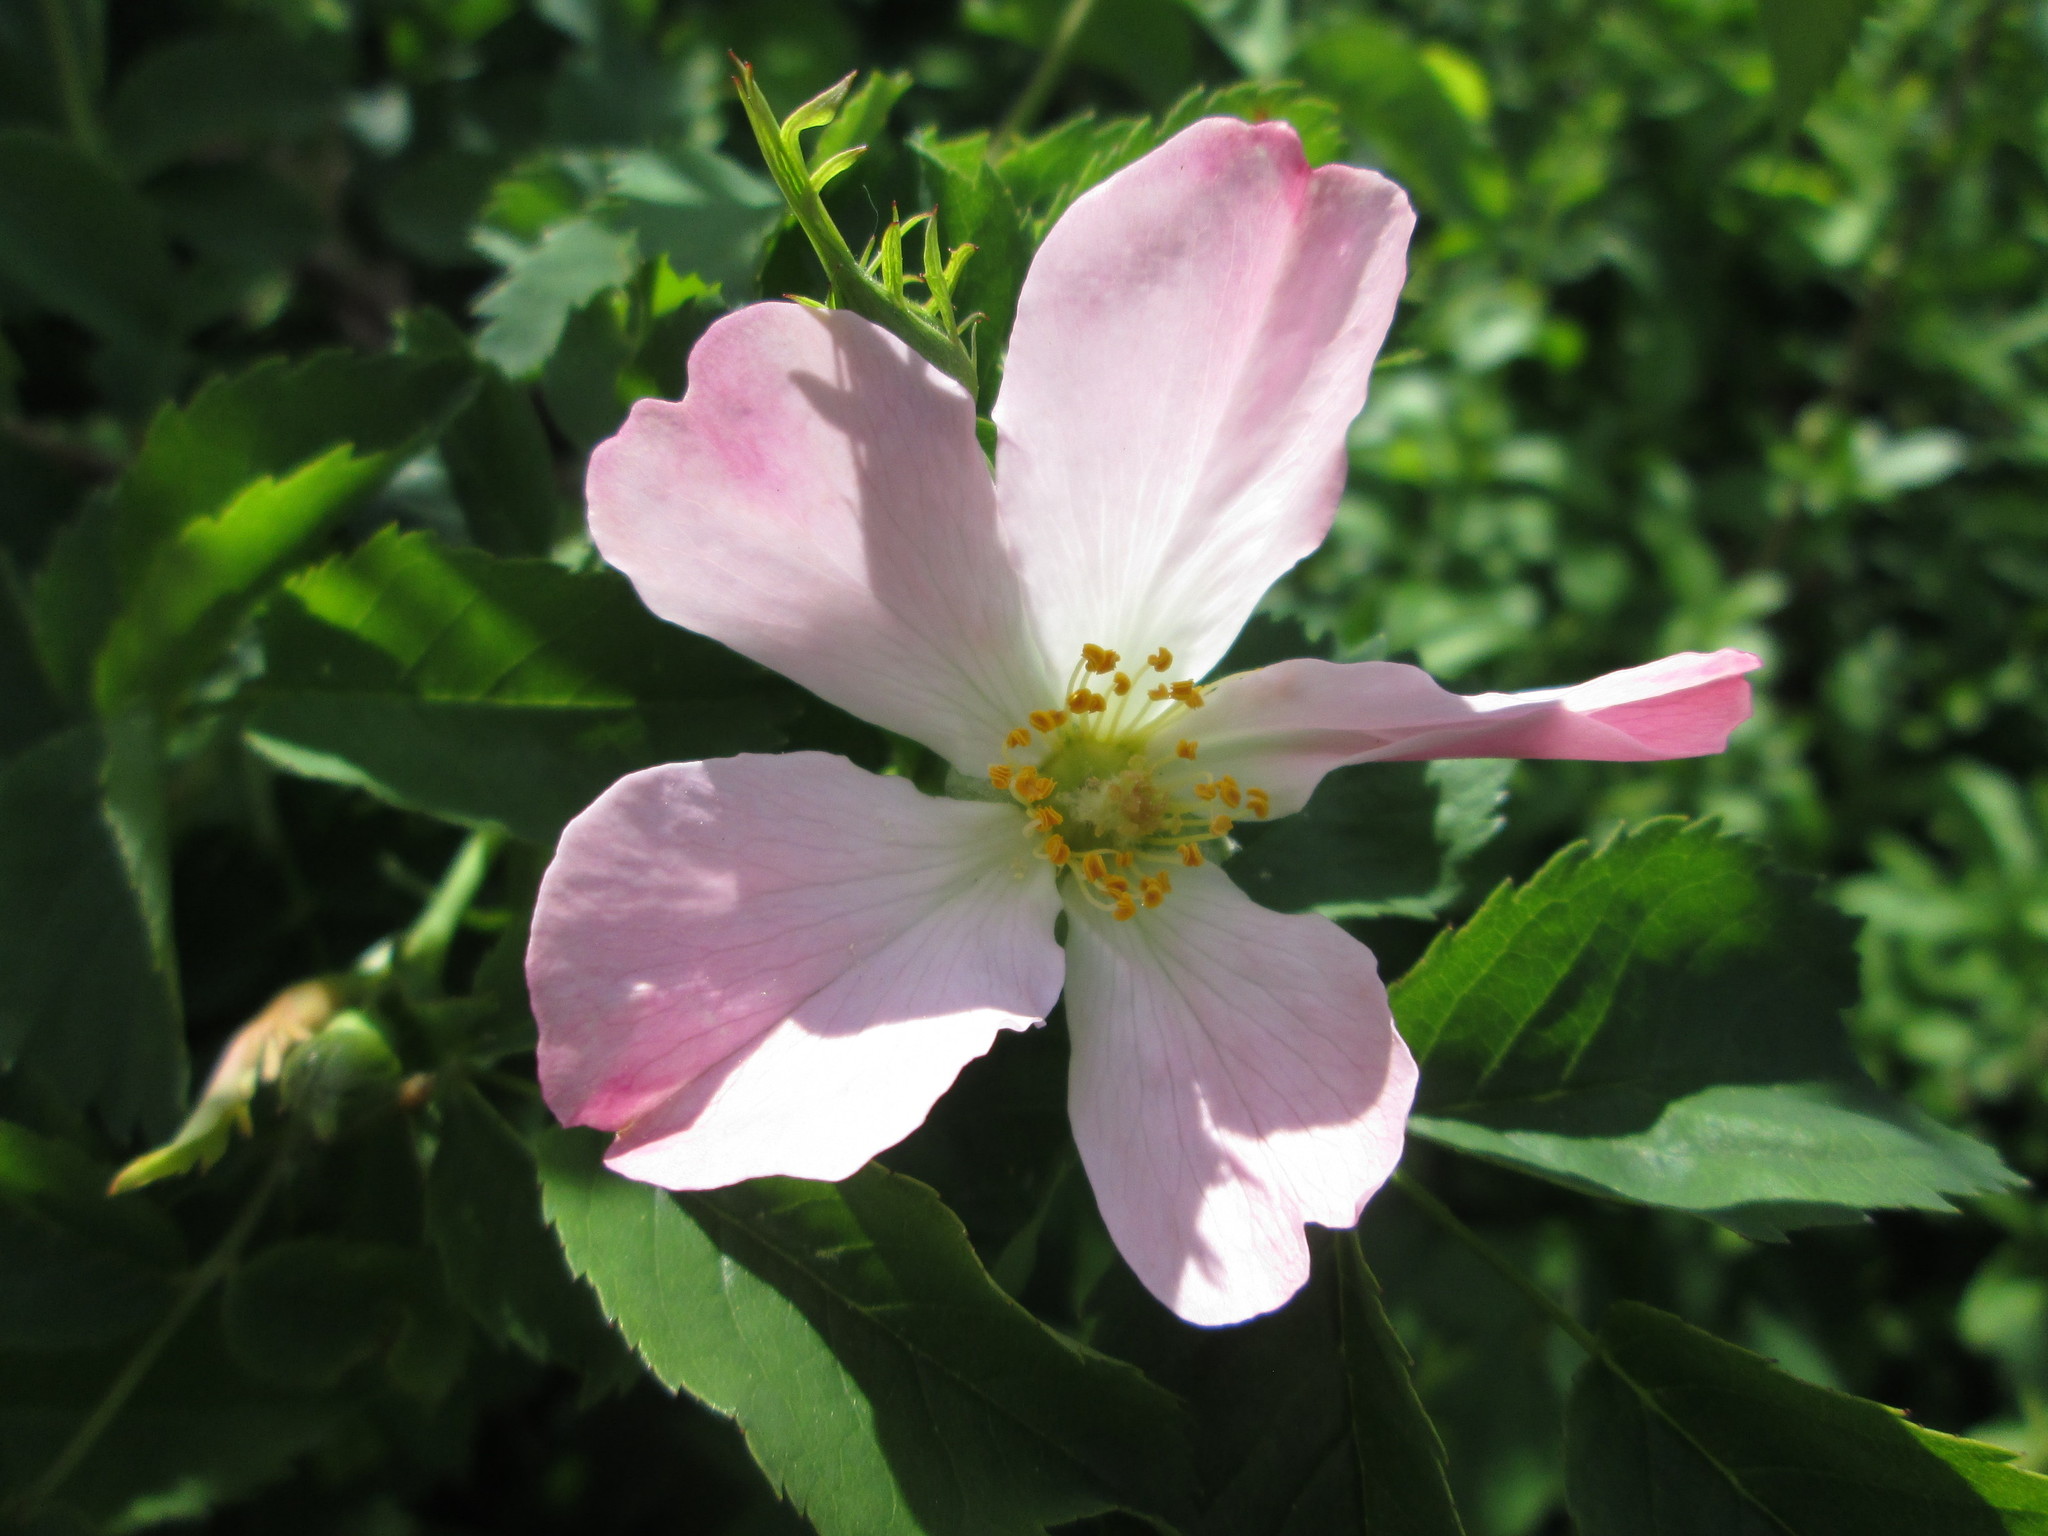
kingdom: Plantae
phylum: Tracheophyta
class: Magnoliopsida
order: Rosales
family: Rosaceae
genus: Rosa
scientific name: Rosa canina
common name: Dog rose
